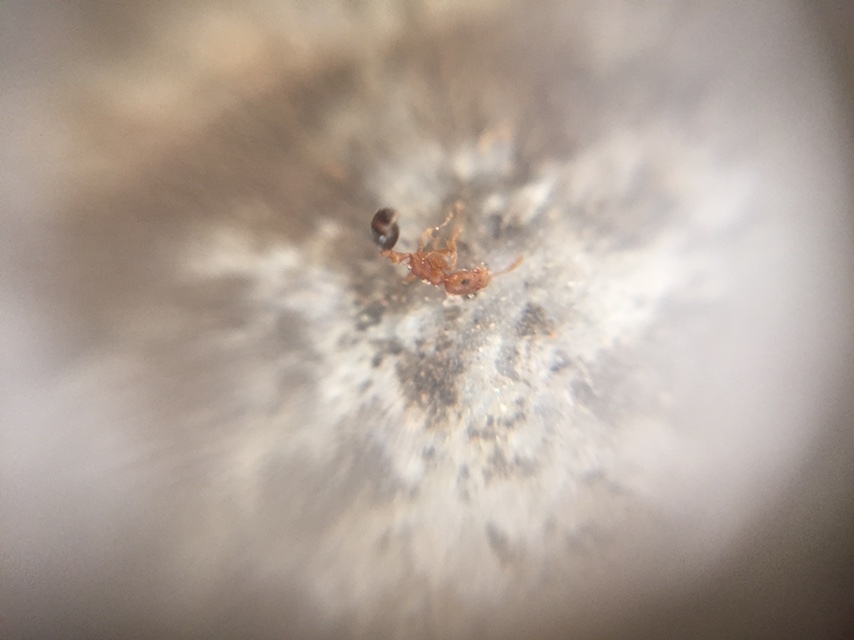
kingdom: Animalia
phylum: Arthropoda
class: Insecta
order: Hymenoptera
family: Formicidae
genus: Tetramorium
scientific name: Tetramorium bicarinatum
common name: Guinea ant
